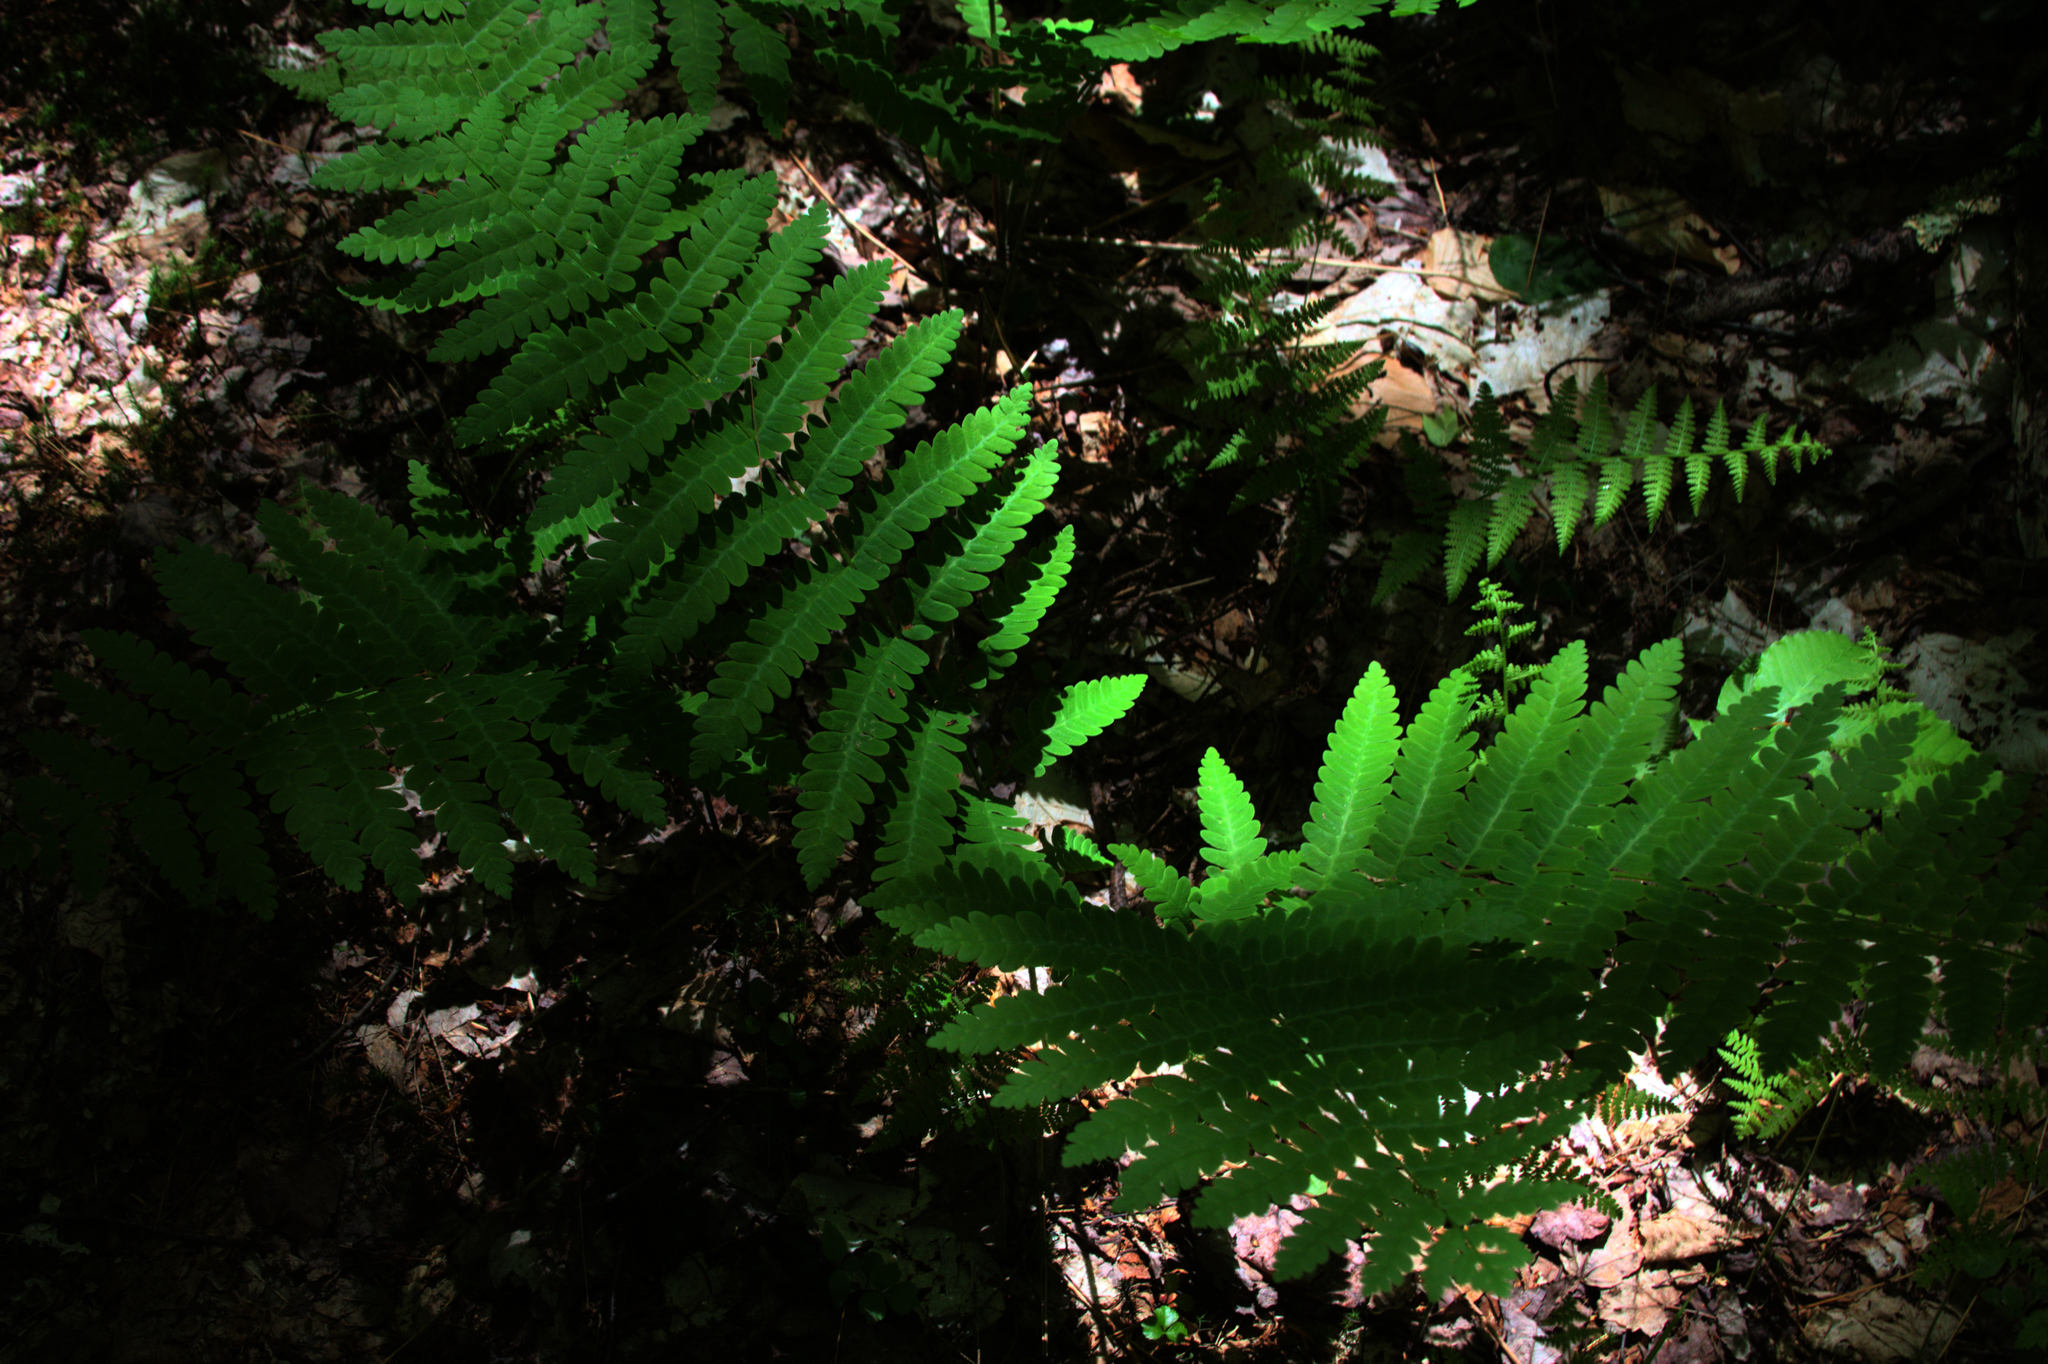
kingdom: Plantae
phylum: Tracheophyta
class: Polypodiopsida
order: Osmundales
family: Osmundaceae
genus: Claytosmunda
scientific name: Claytosmunda claytoniana
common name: Clayton's fern
